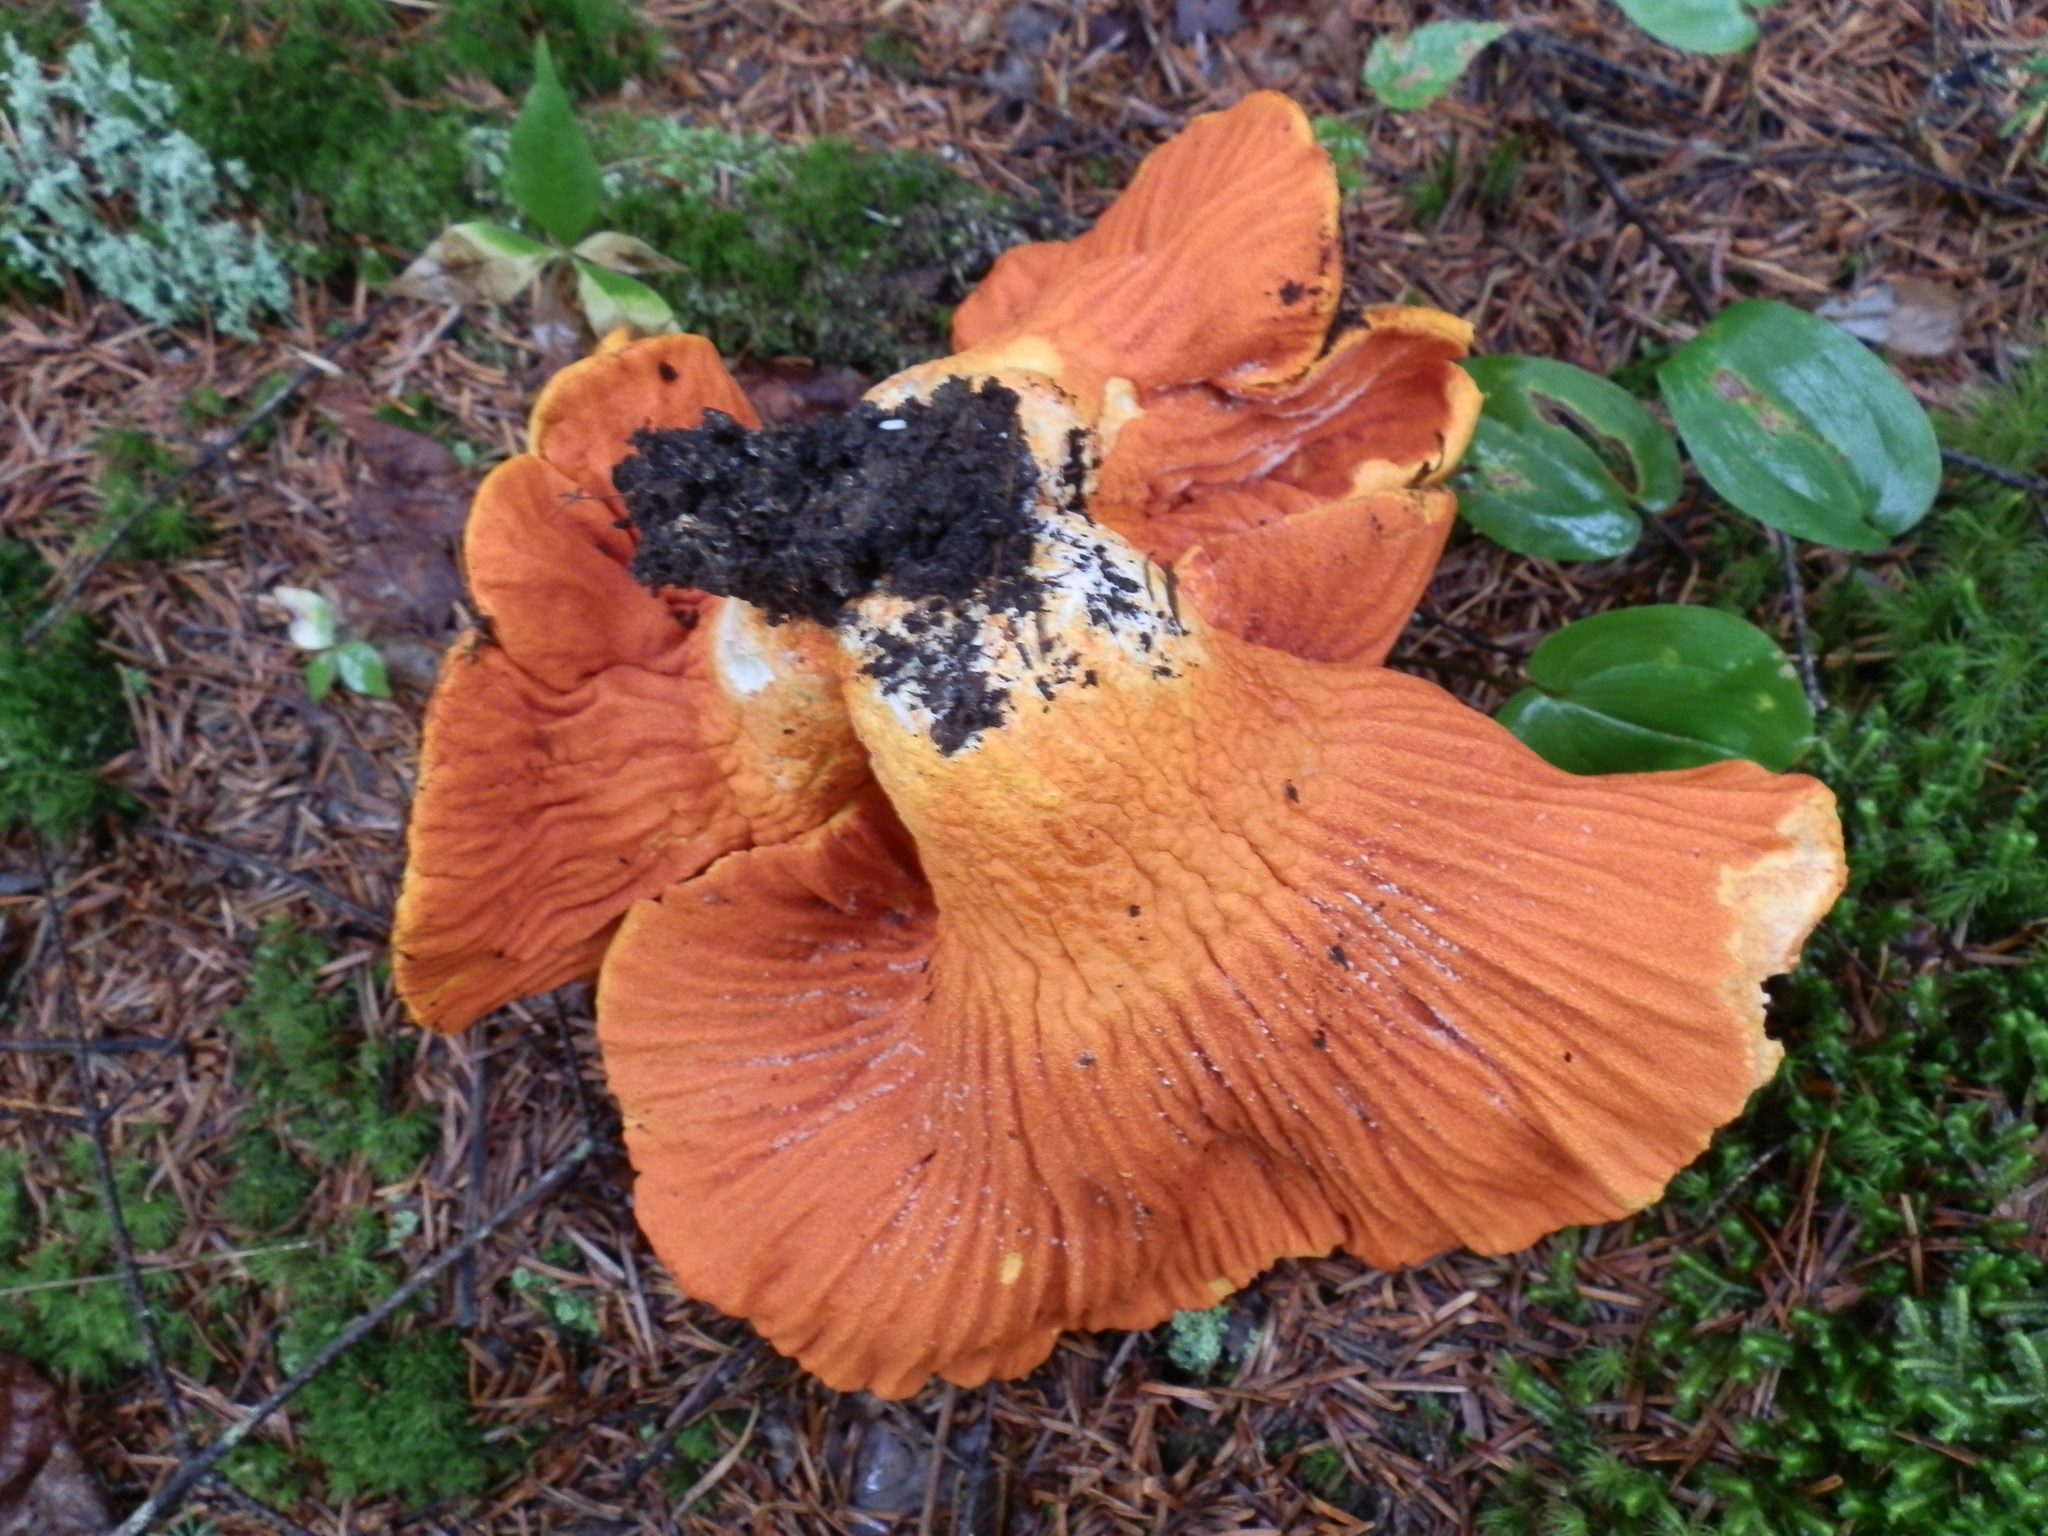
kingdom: Fungi
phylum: Ascomycota
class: Sordariomycetes
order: Hypocreales
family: Hypocreaceae
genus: Hypomyces
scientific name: Hypomyces lactifluorum
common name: Lobster mushroom
